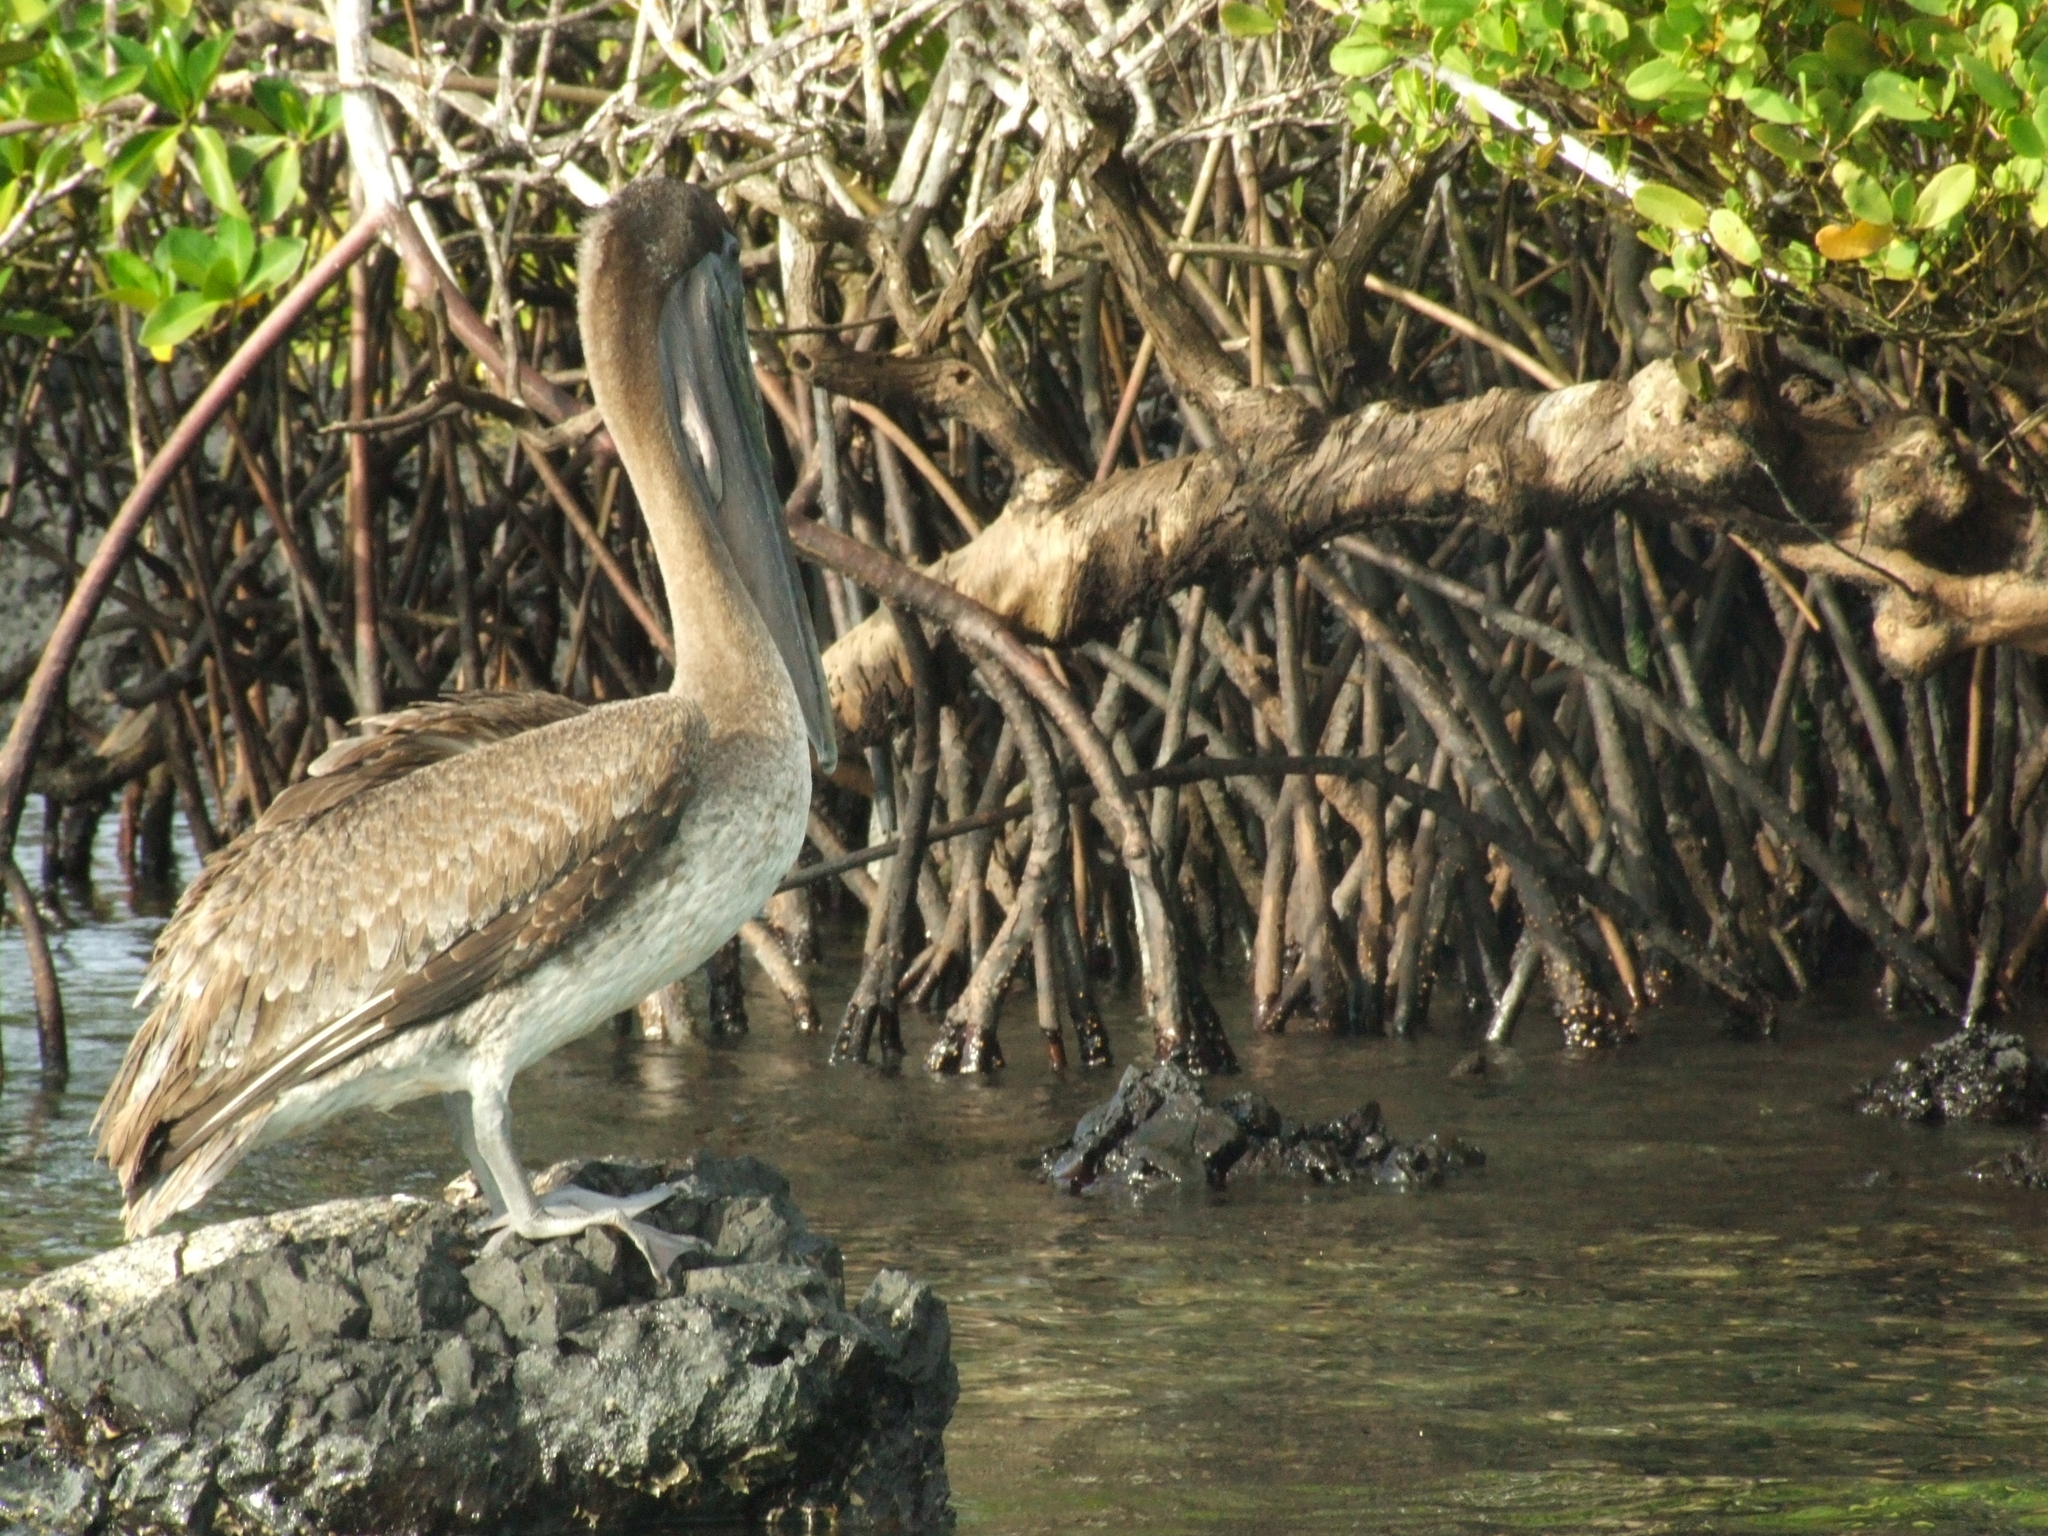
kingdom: Animalia
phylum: Chordata
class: Aves
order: Pelecaniformes
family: Pelecanidae
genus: Pelecanus
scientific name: Pelecanus occidentalis
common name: Brown pelican
